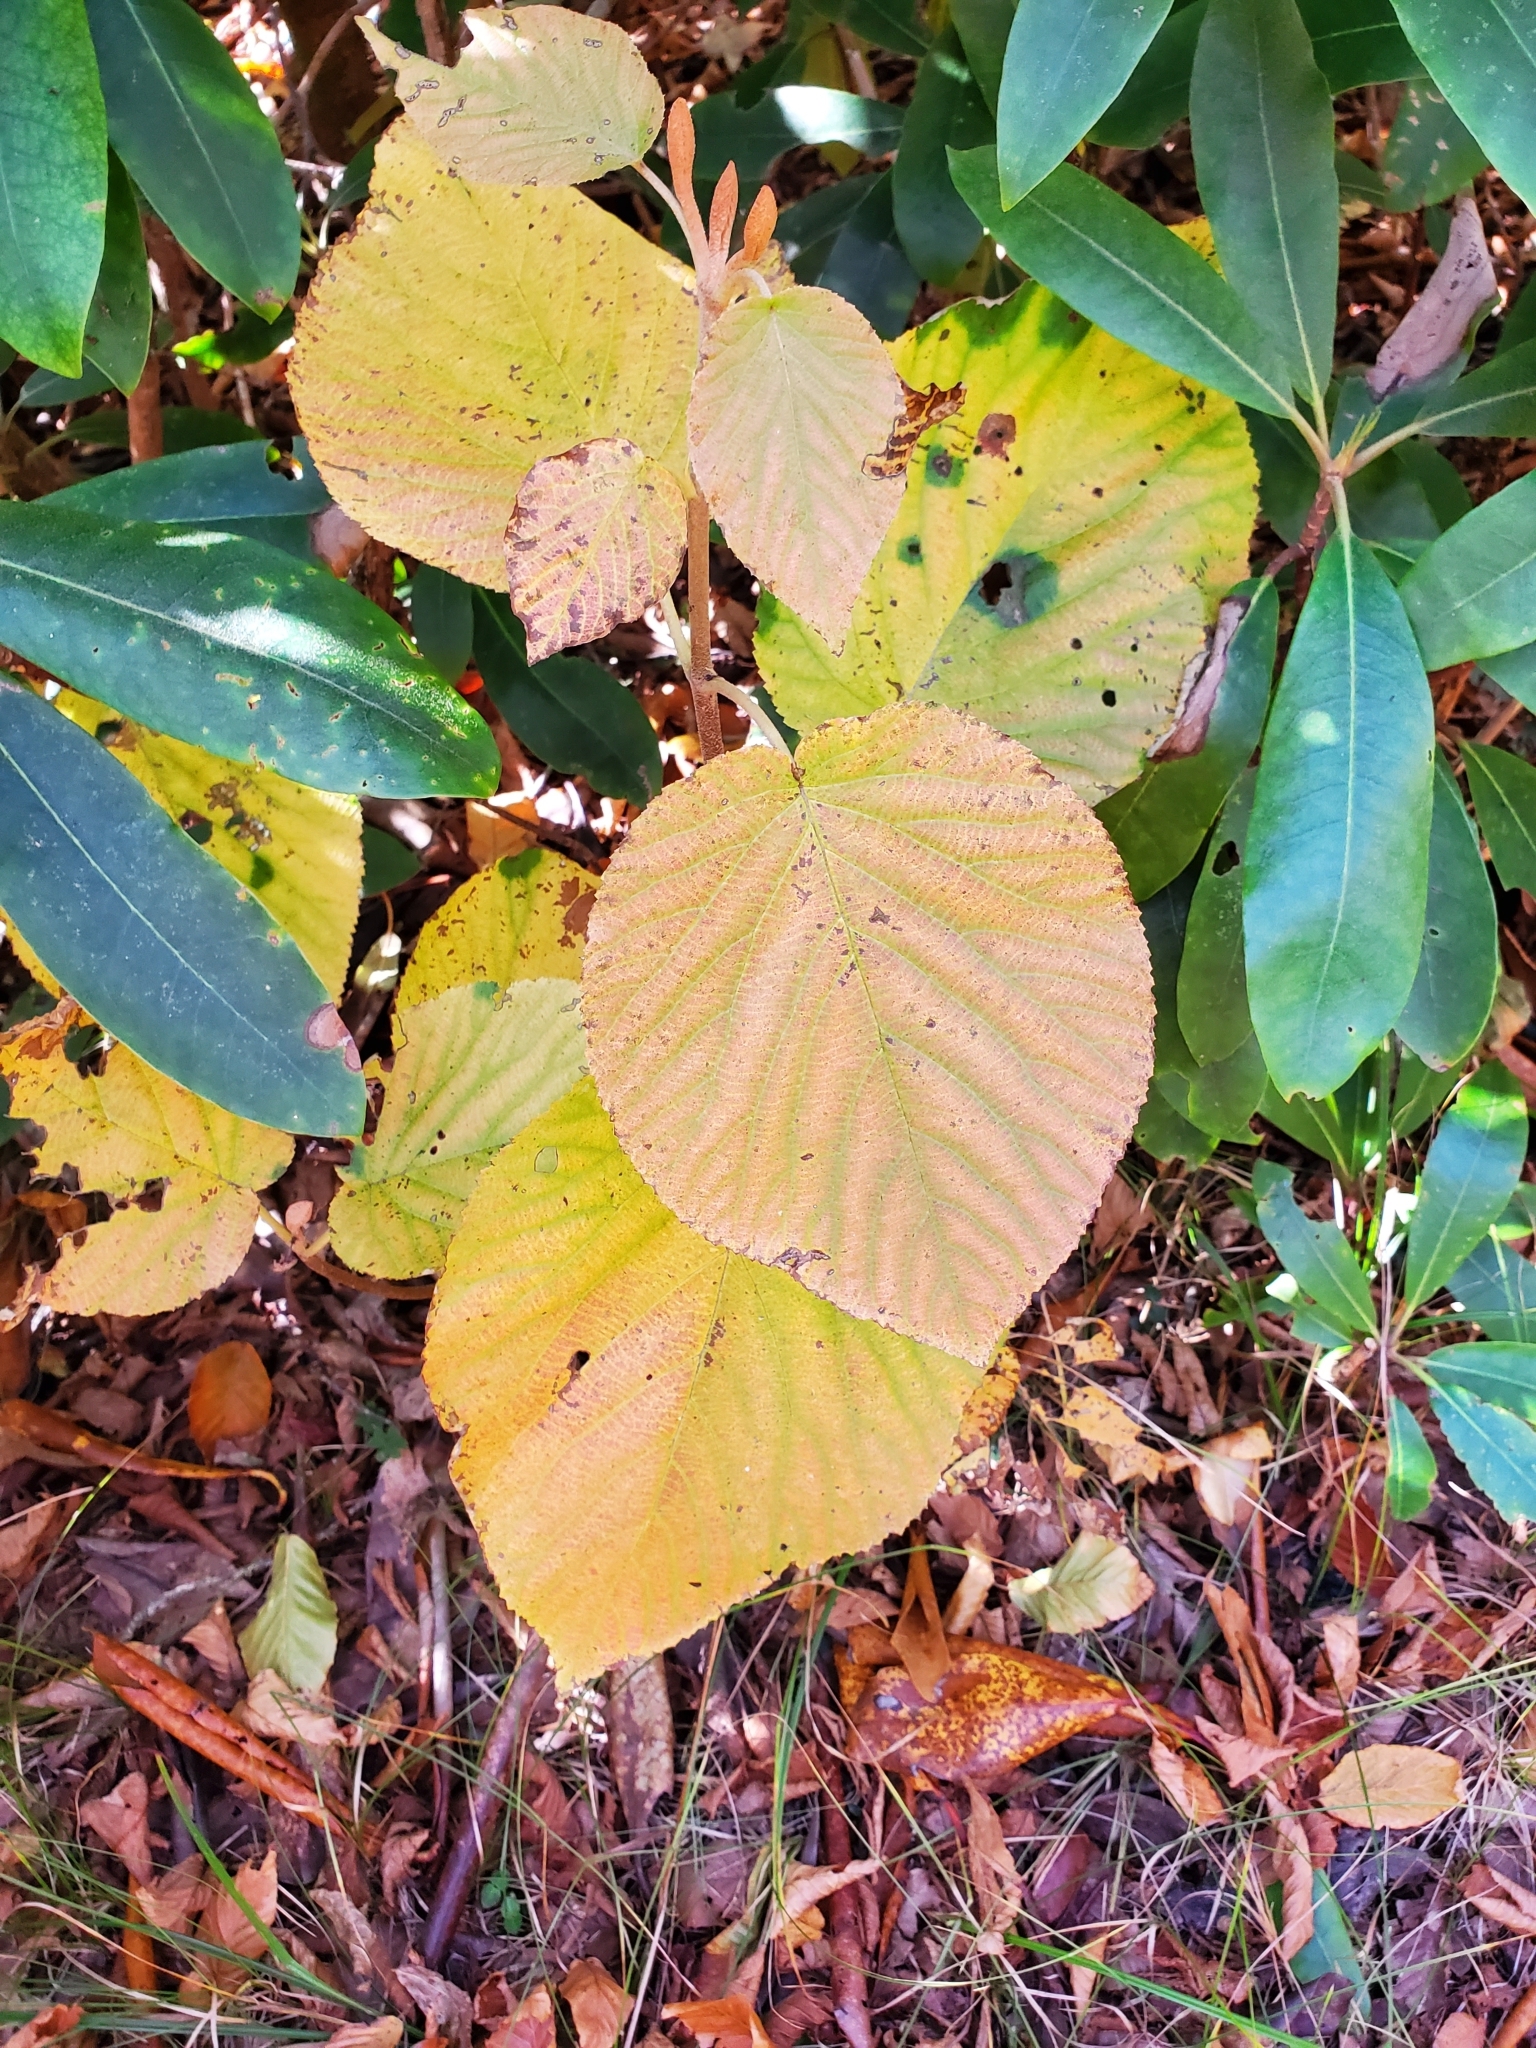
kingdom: Plantae
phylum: Tracheophyta
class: Magnoliopsida
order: Dipsacales
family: Viburnaceae
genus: Viburnum
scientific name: Viburnum lantanoides
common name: Hobblebush
